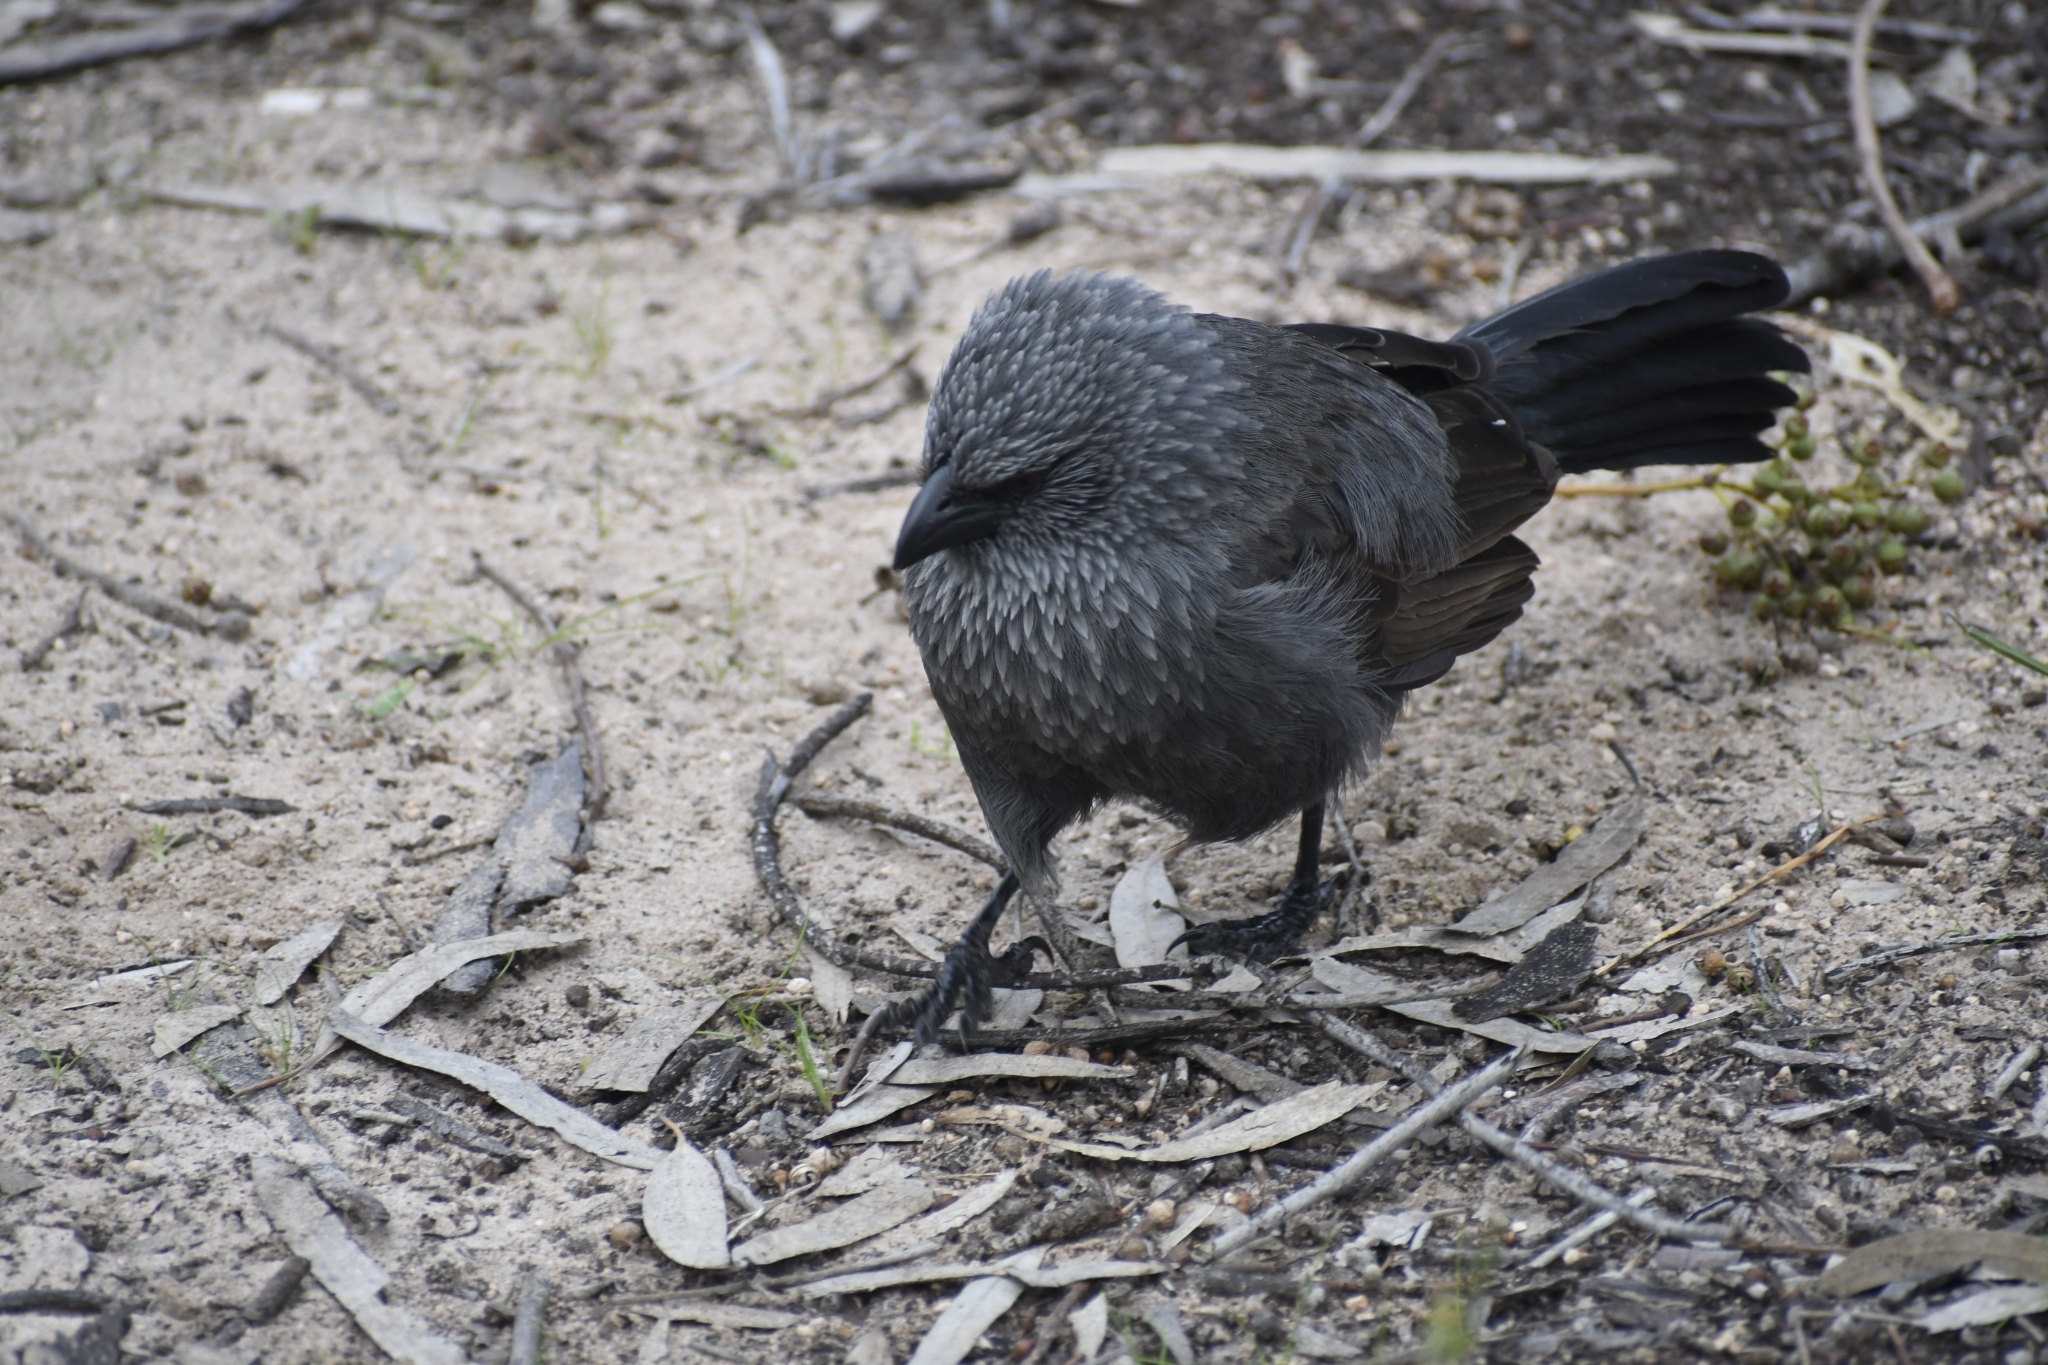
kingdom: Animalia
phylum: Chordata
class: Aves
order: Passeriformes
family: Corcoracidae
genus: Struthidea
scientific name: Struthidea cinerea
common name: Apostlebird
